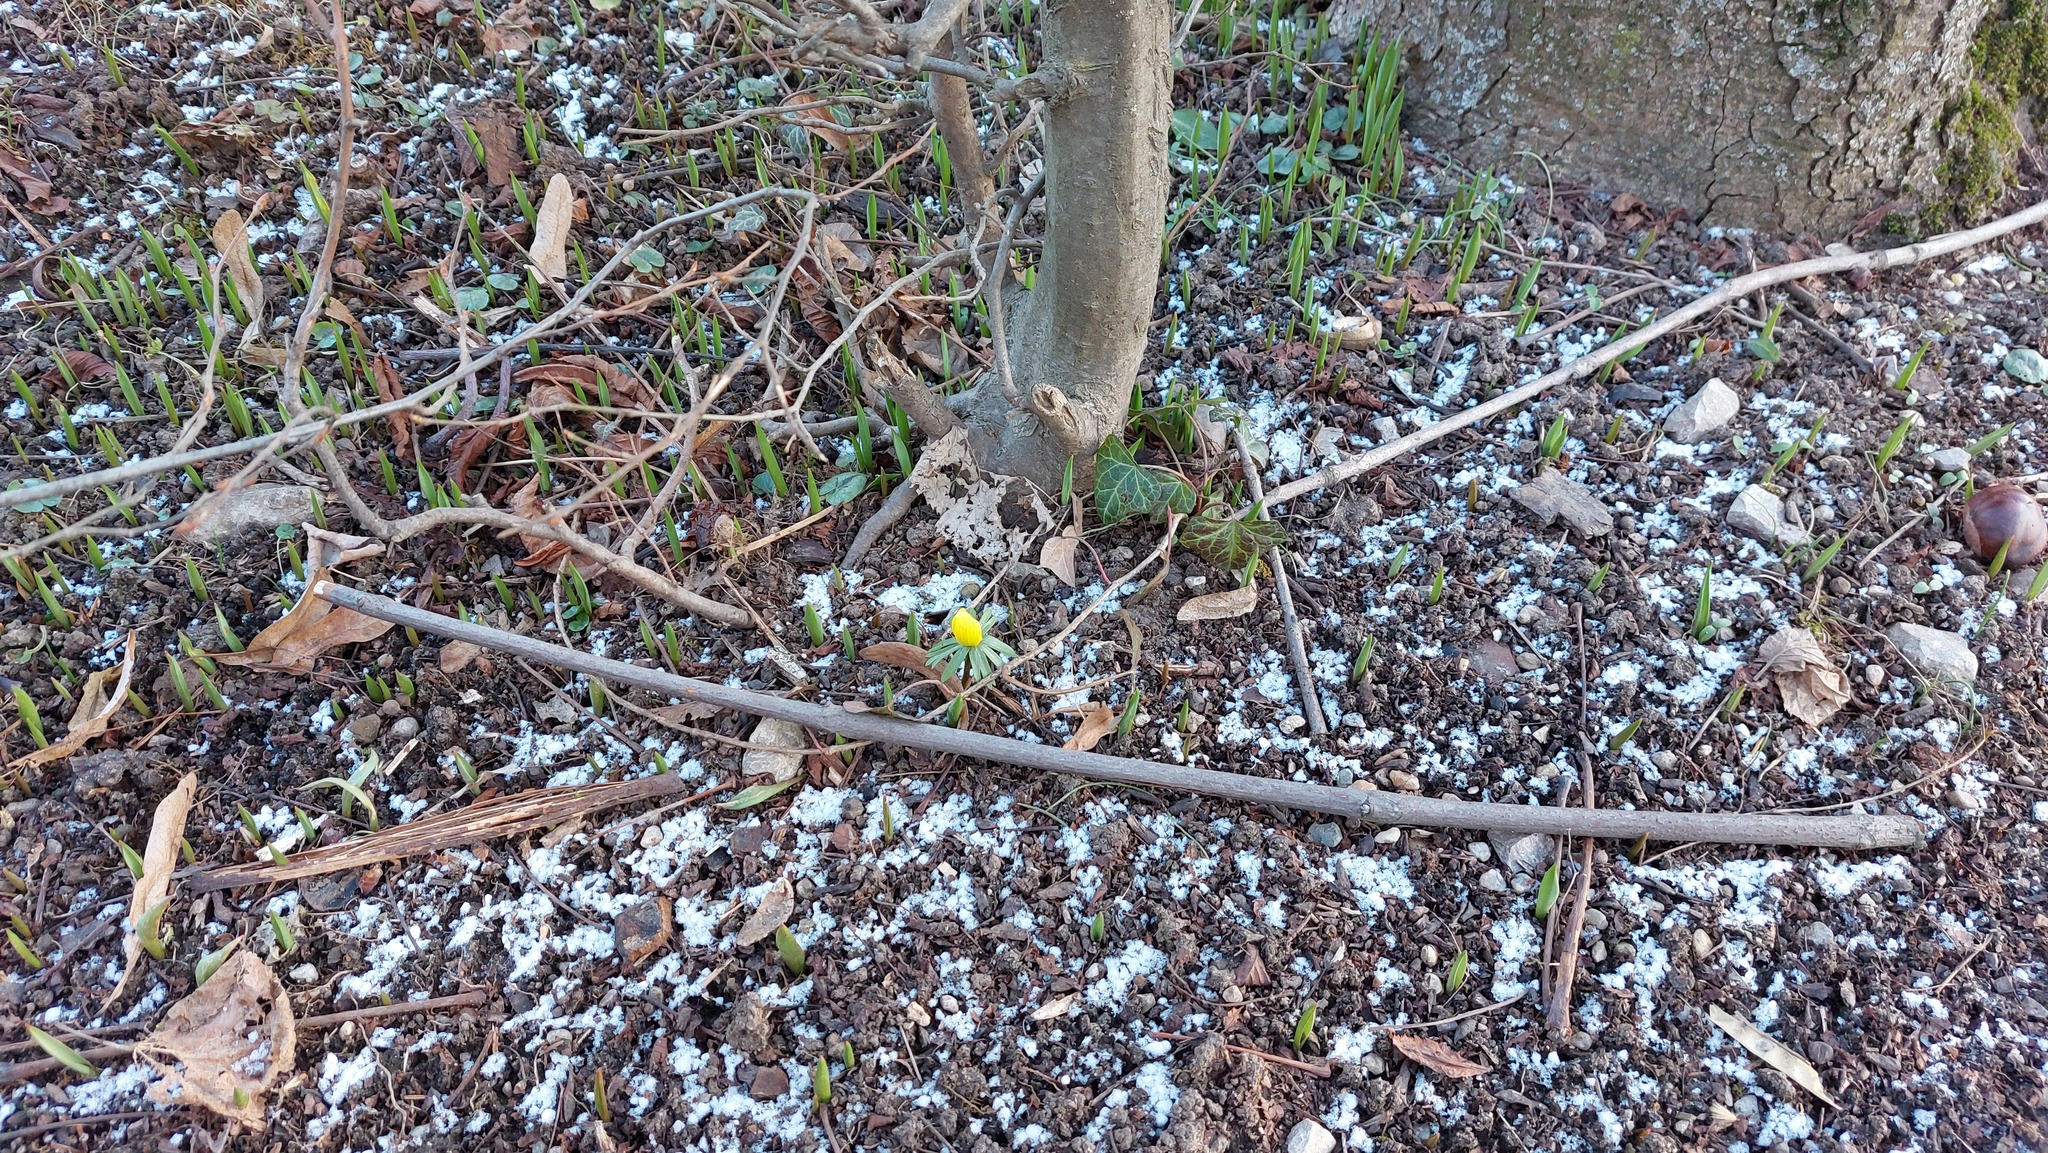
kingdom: Plantae
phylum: Tracheophyta
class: Magnoliopsida
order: Ranunculales
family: Ranunculaceae
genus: Eranthis
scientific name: Eranthis hyemalis
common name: Winter aconite
